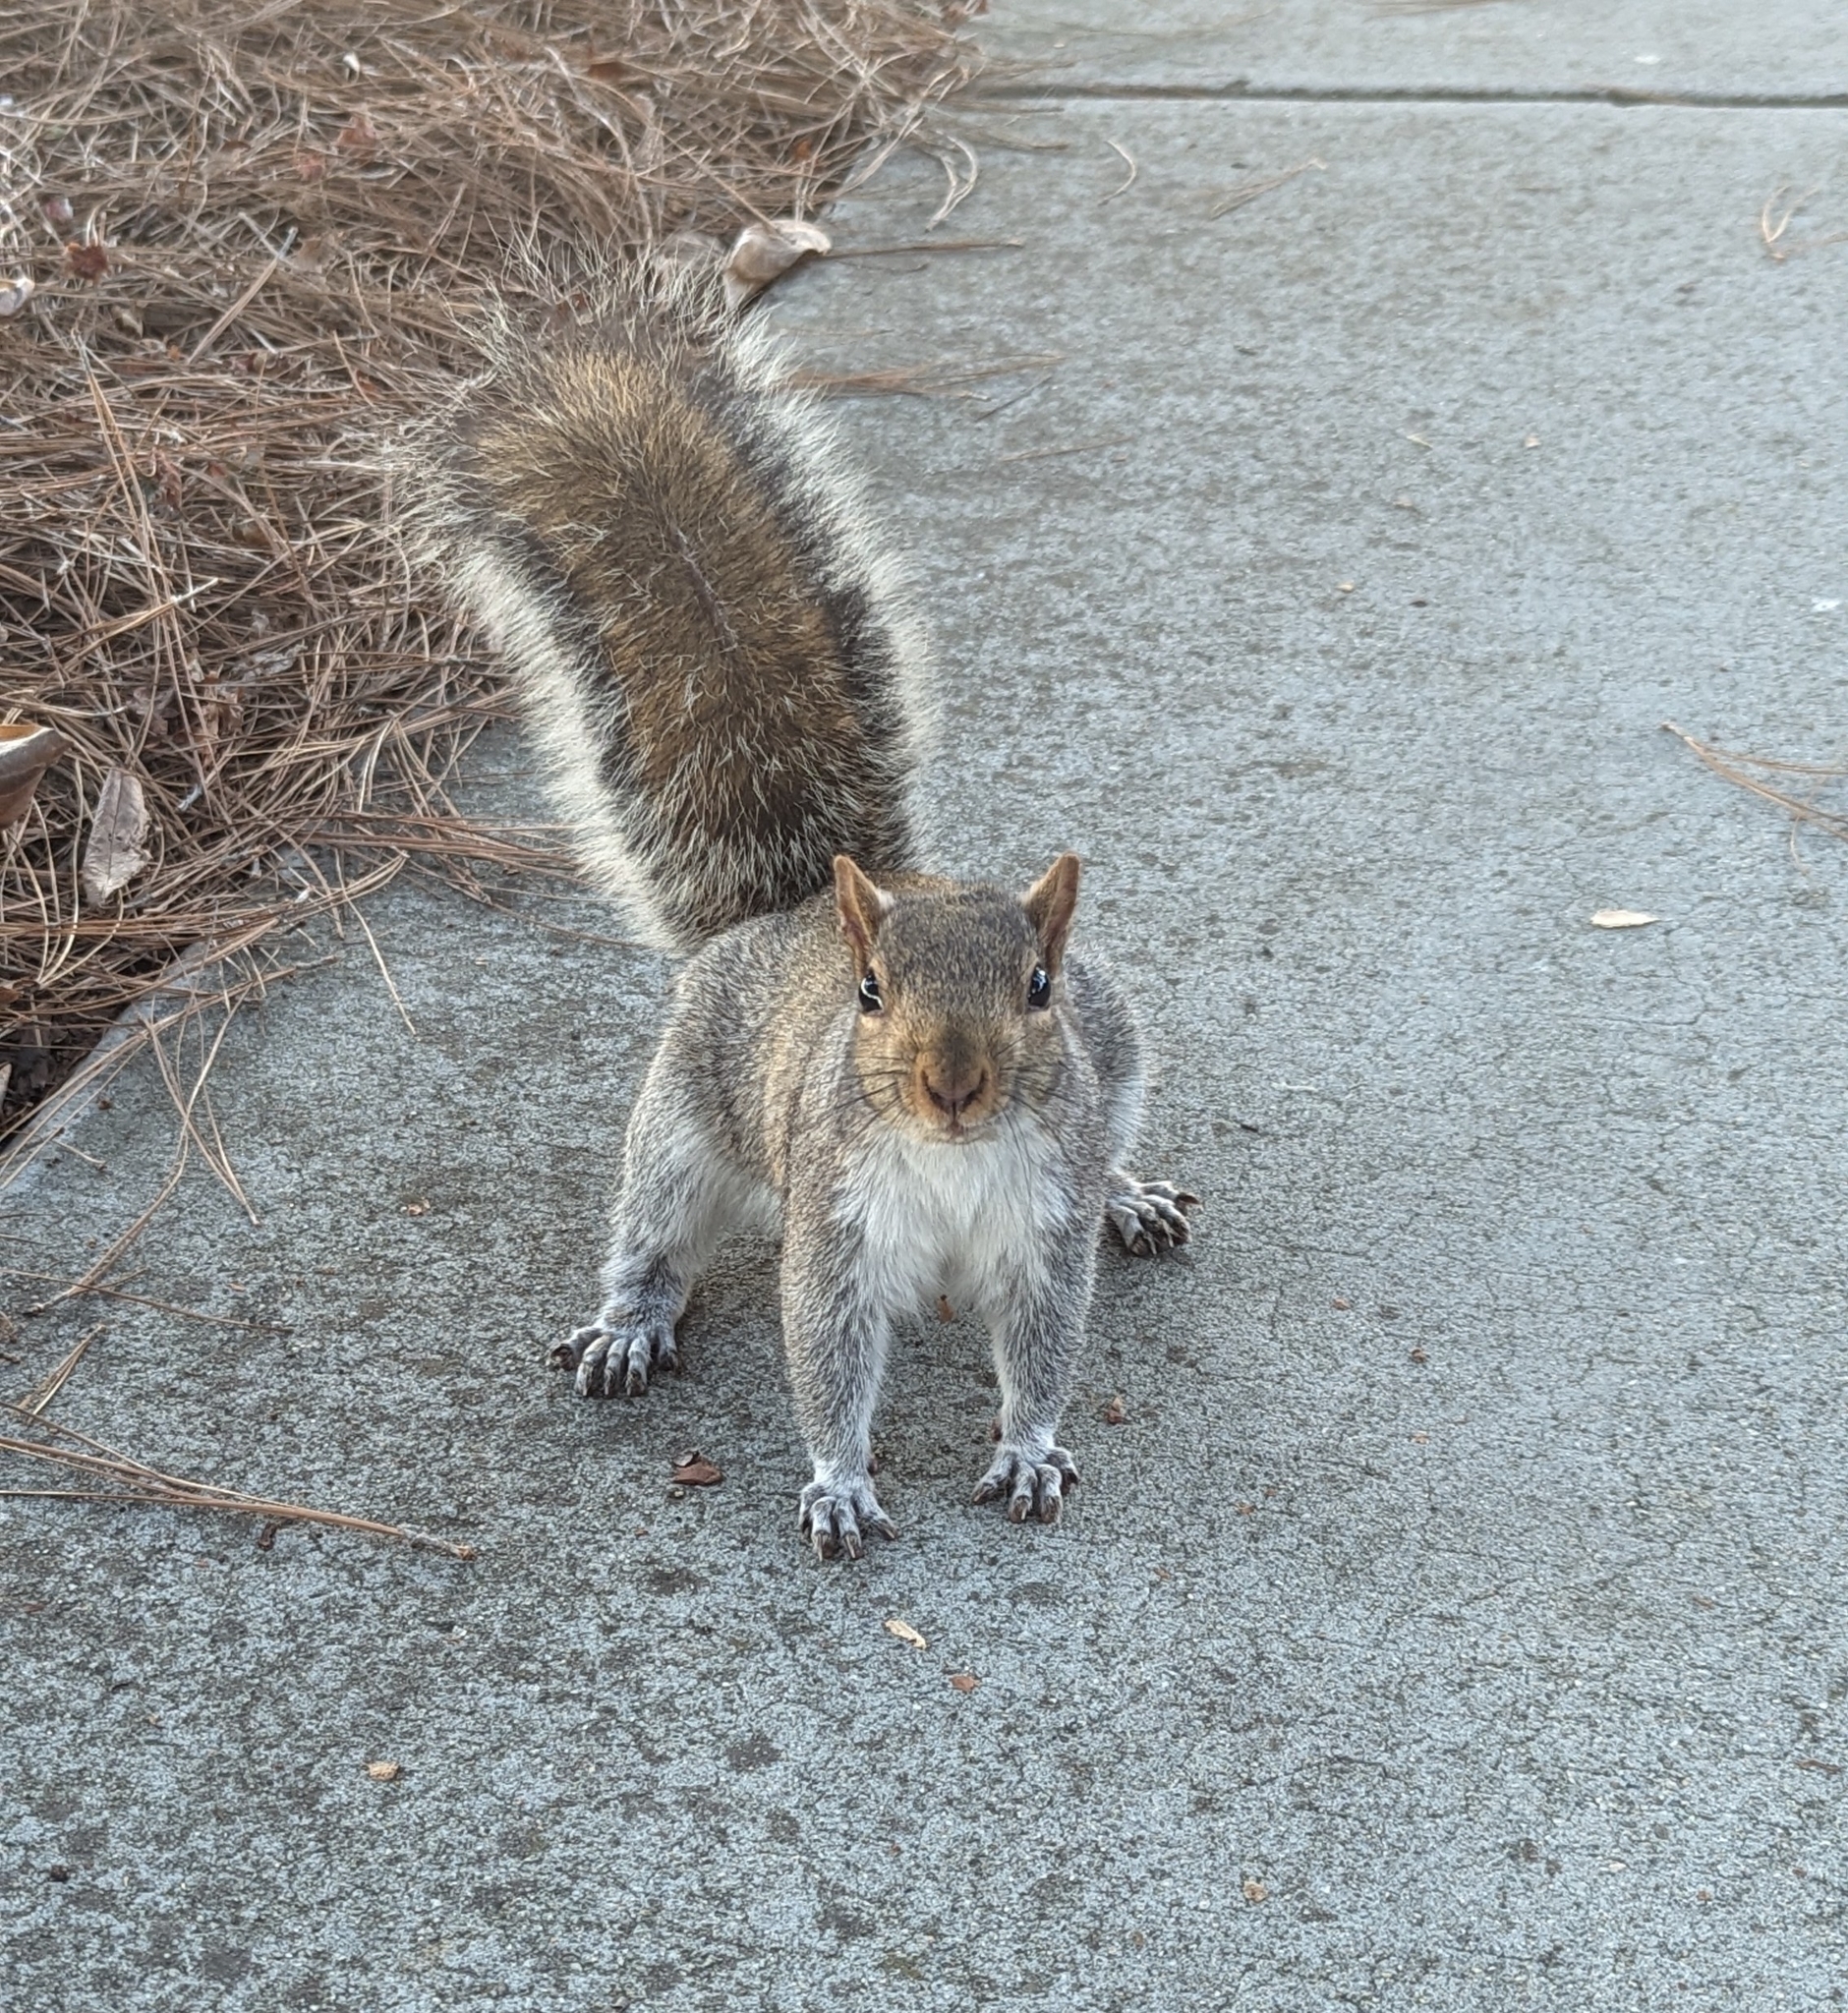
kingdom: Animalia
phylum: Chordata
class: Mammalia
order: Rodentia
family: Sciuridae
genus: Sciurus
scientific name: Sciurus carolinensis
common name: Eastern gray squirrel
